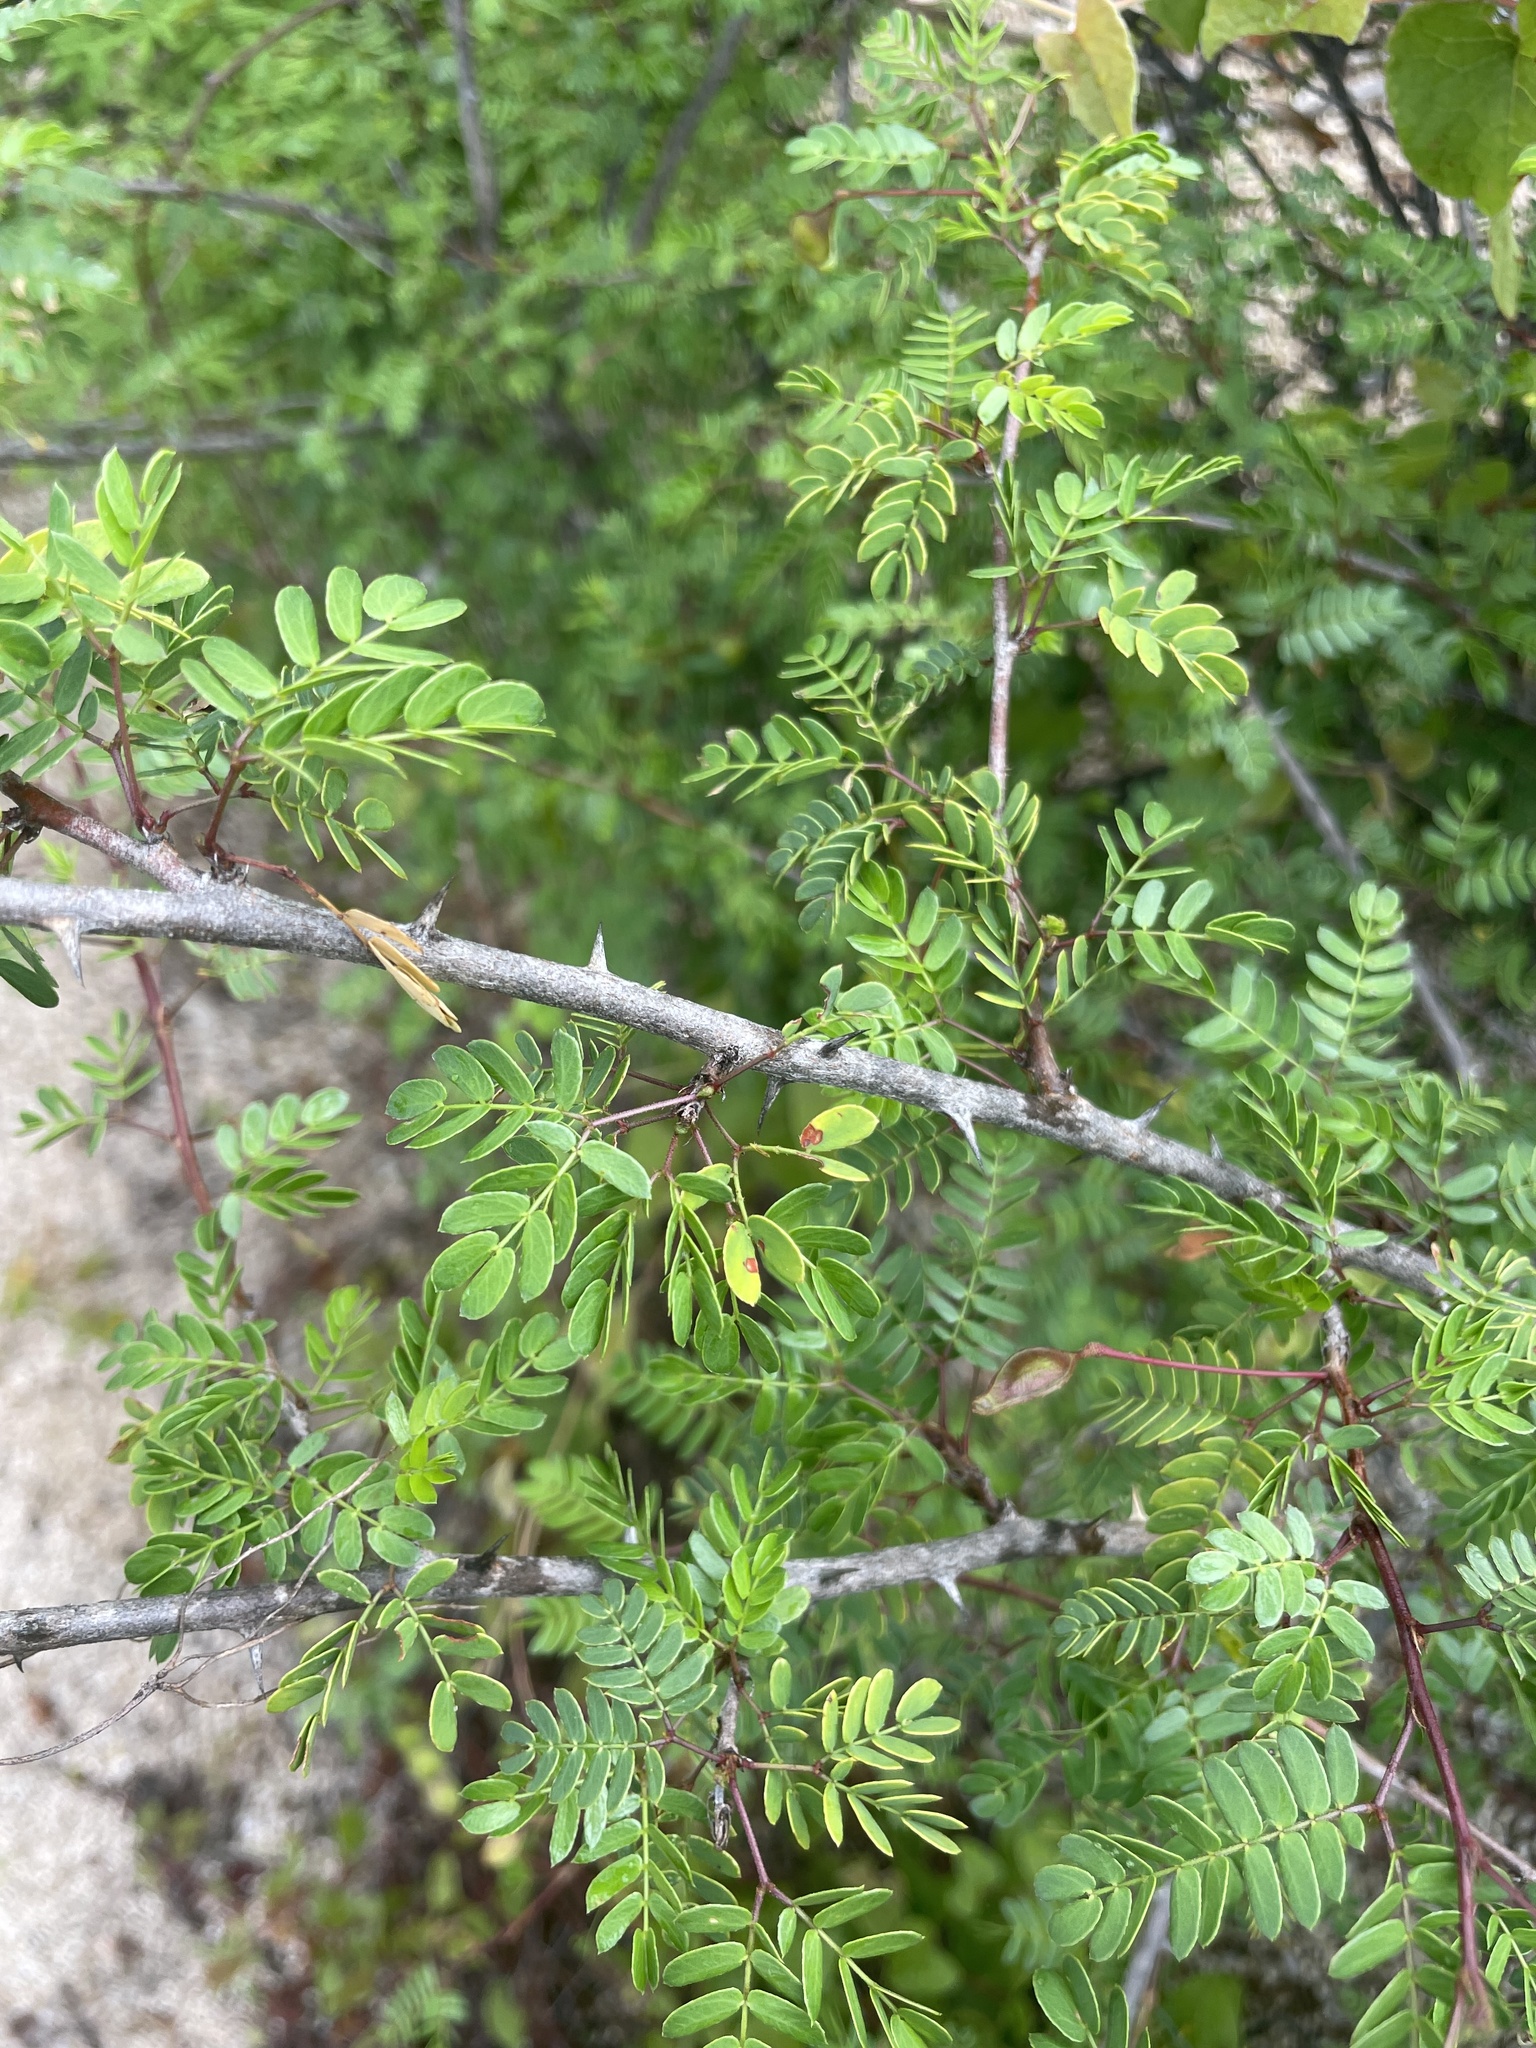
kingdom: Plantae
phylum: Tracheophyta
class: Magnoliopsida
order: Fabales
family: Fabaceae
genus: Mimosa
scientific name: Mimosa tricephala
